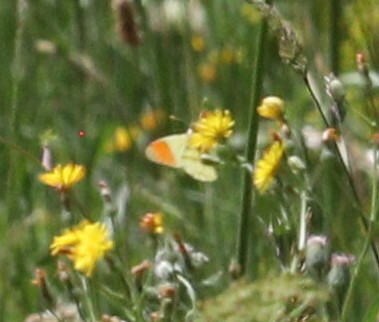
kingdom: Animalia
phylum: Arthropoda
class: Insecta
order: Lepidoptera
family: Pieridae
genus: Anthocharis
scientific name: Anthocharis euphenoides
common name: Provence orange-tip
